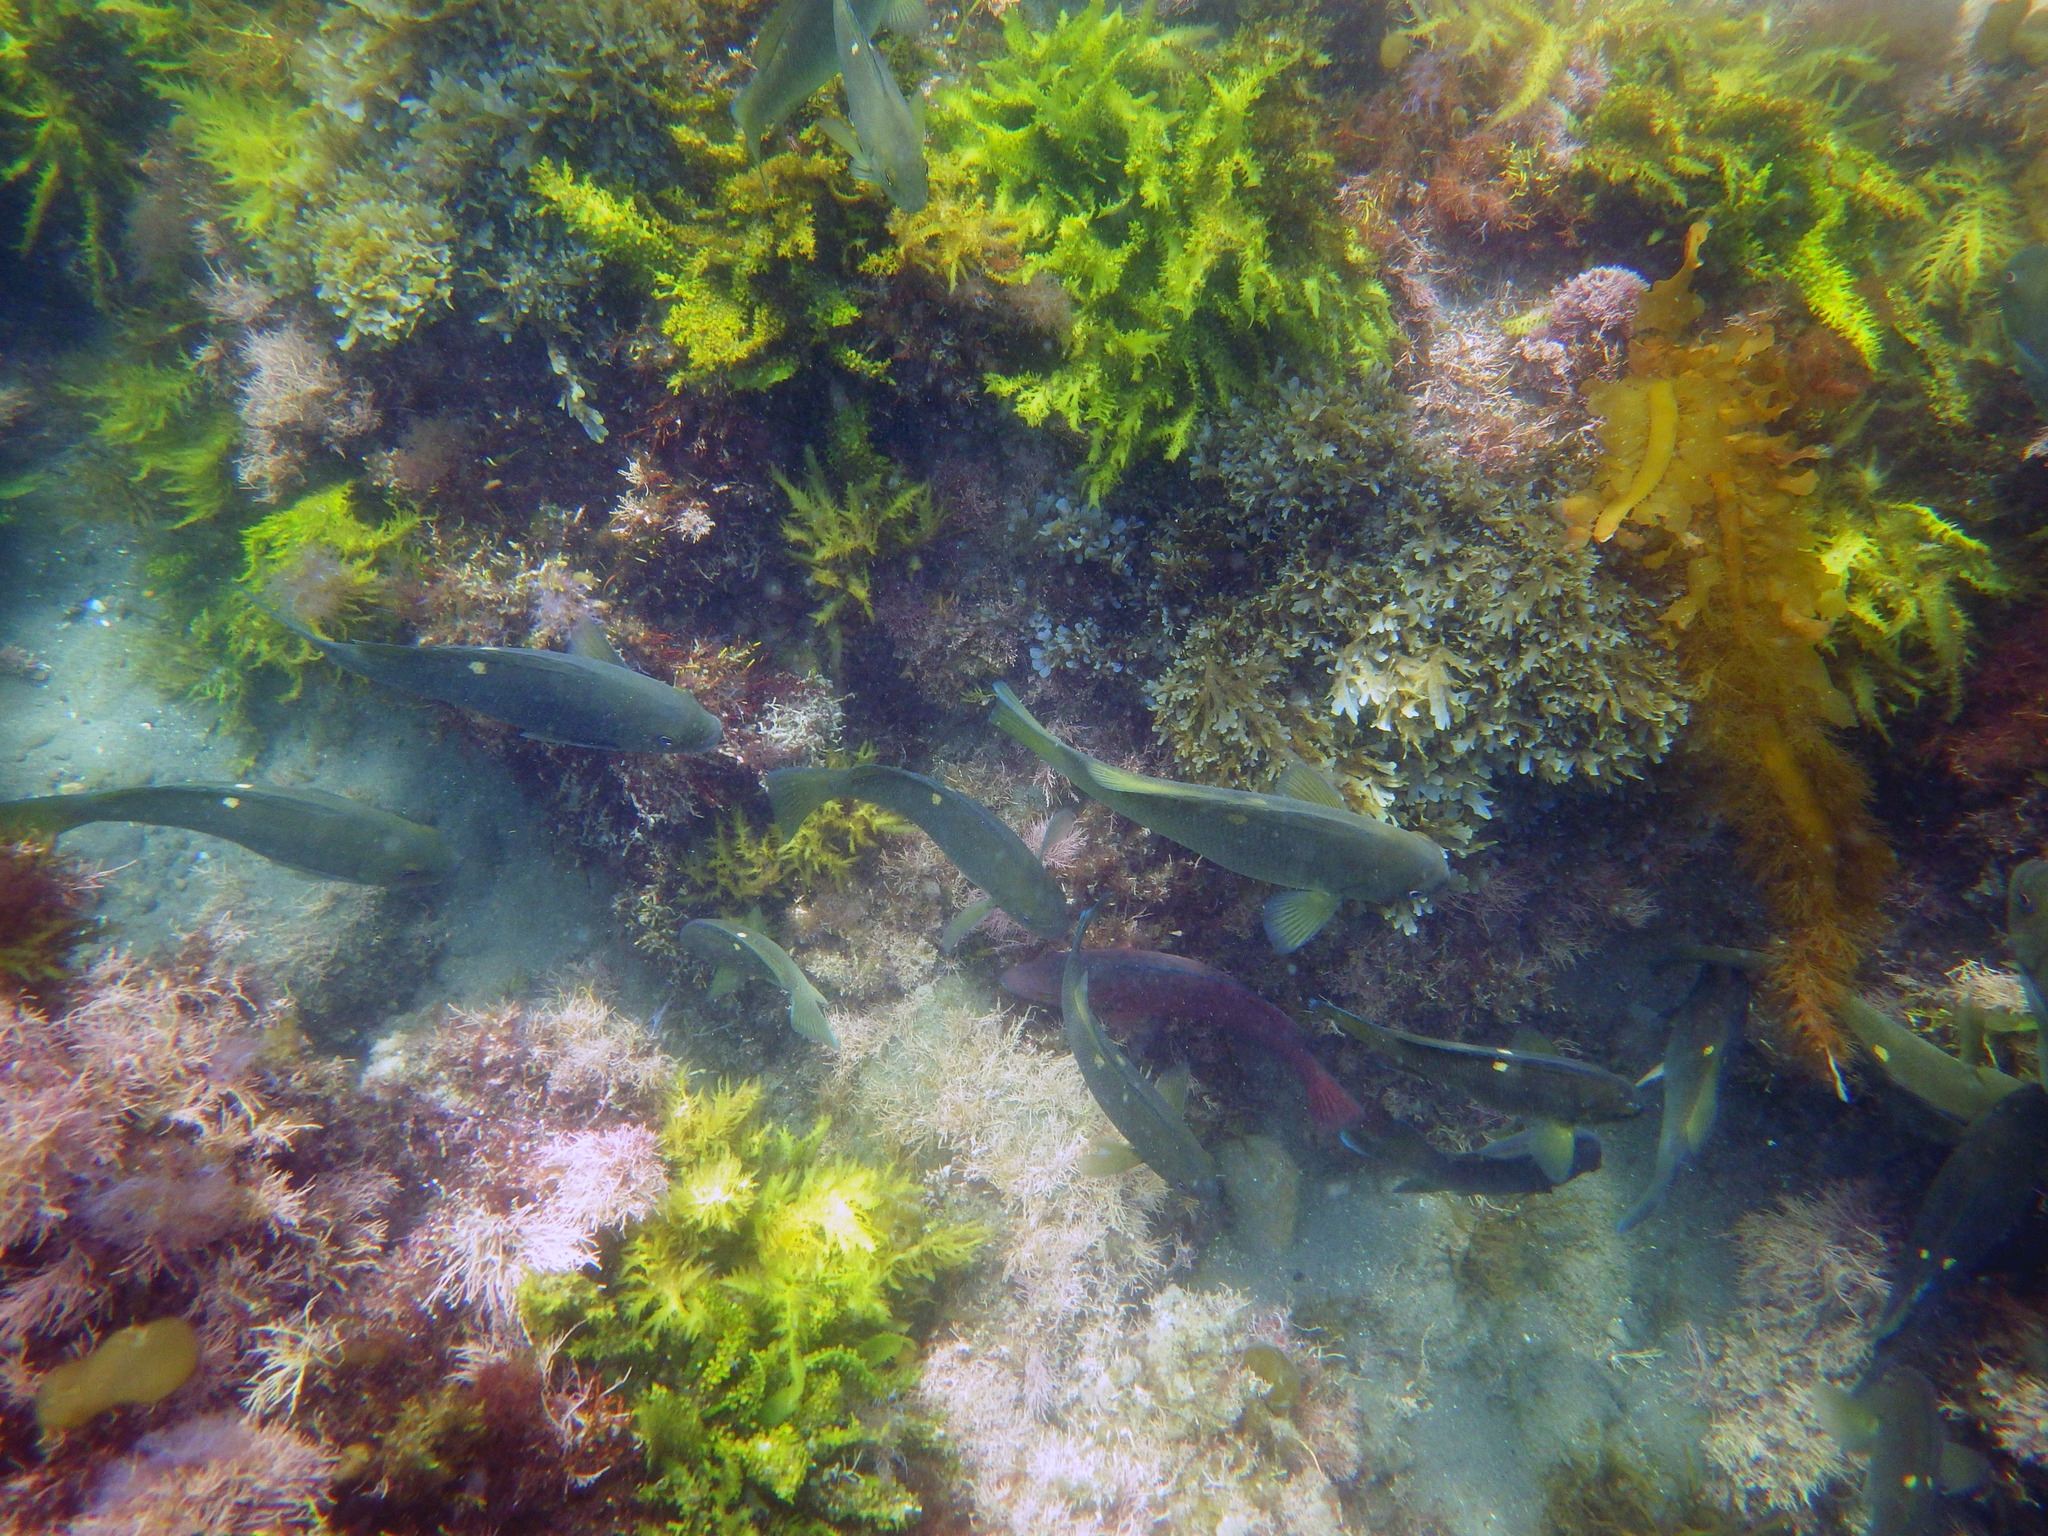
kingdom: Animalia
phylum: Chordata
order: Perciformes
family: Kyphosidae
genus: Girella
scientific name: Girella nigricans
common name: Opaleye
